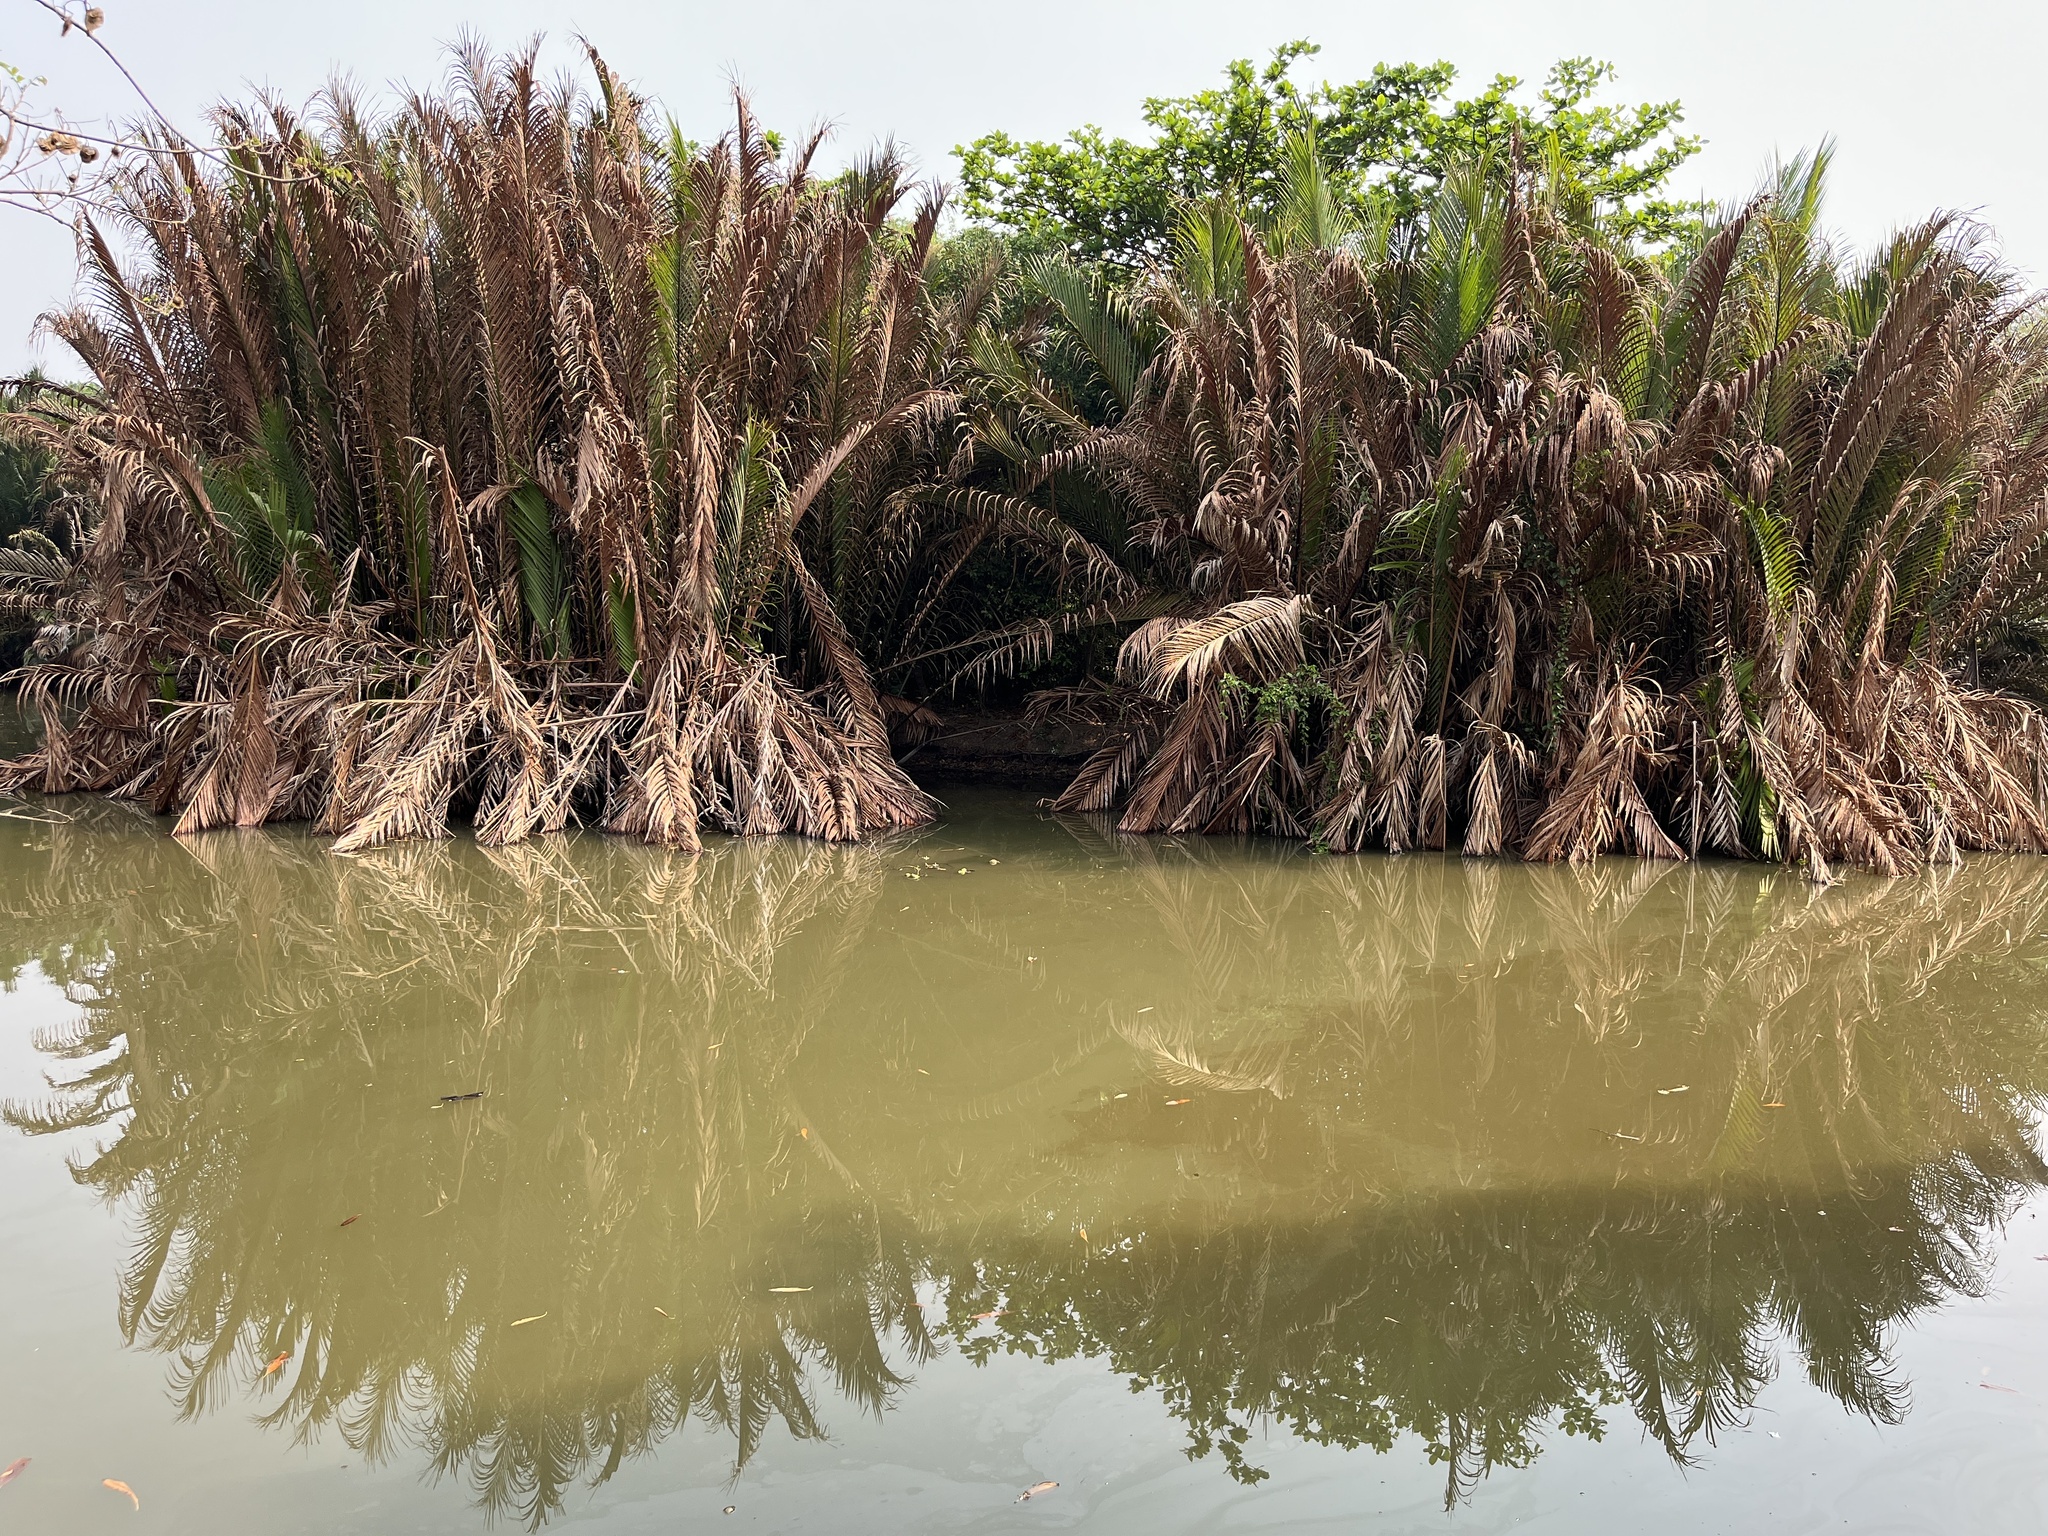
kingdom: Plantae
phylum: Tracheophyta
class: Liliopsida
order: Arecales
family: Arecaceae
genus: Nypa
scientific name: Nypa fruticans
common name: Mangrove palm
